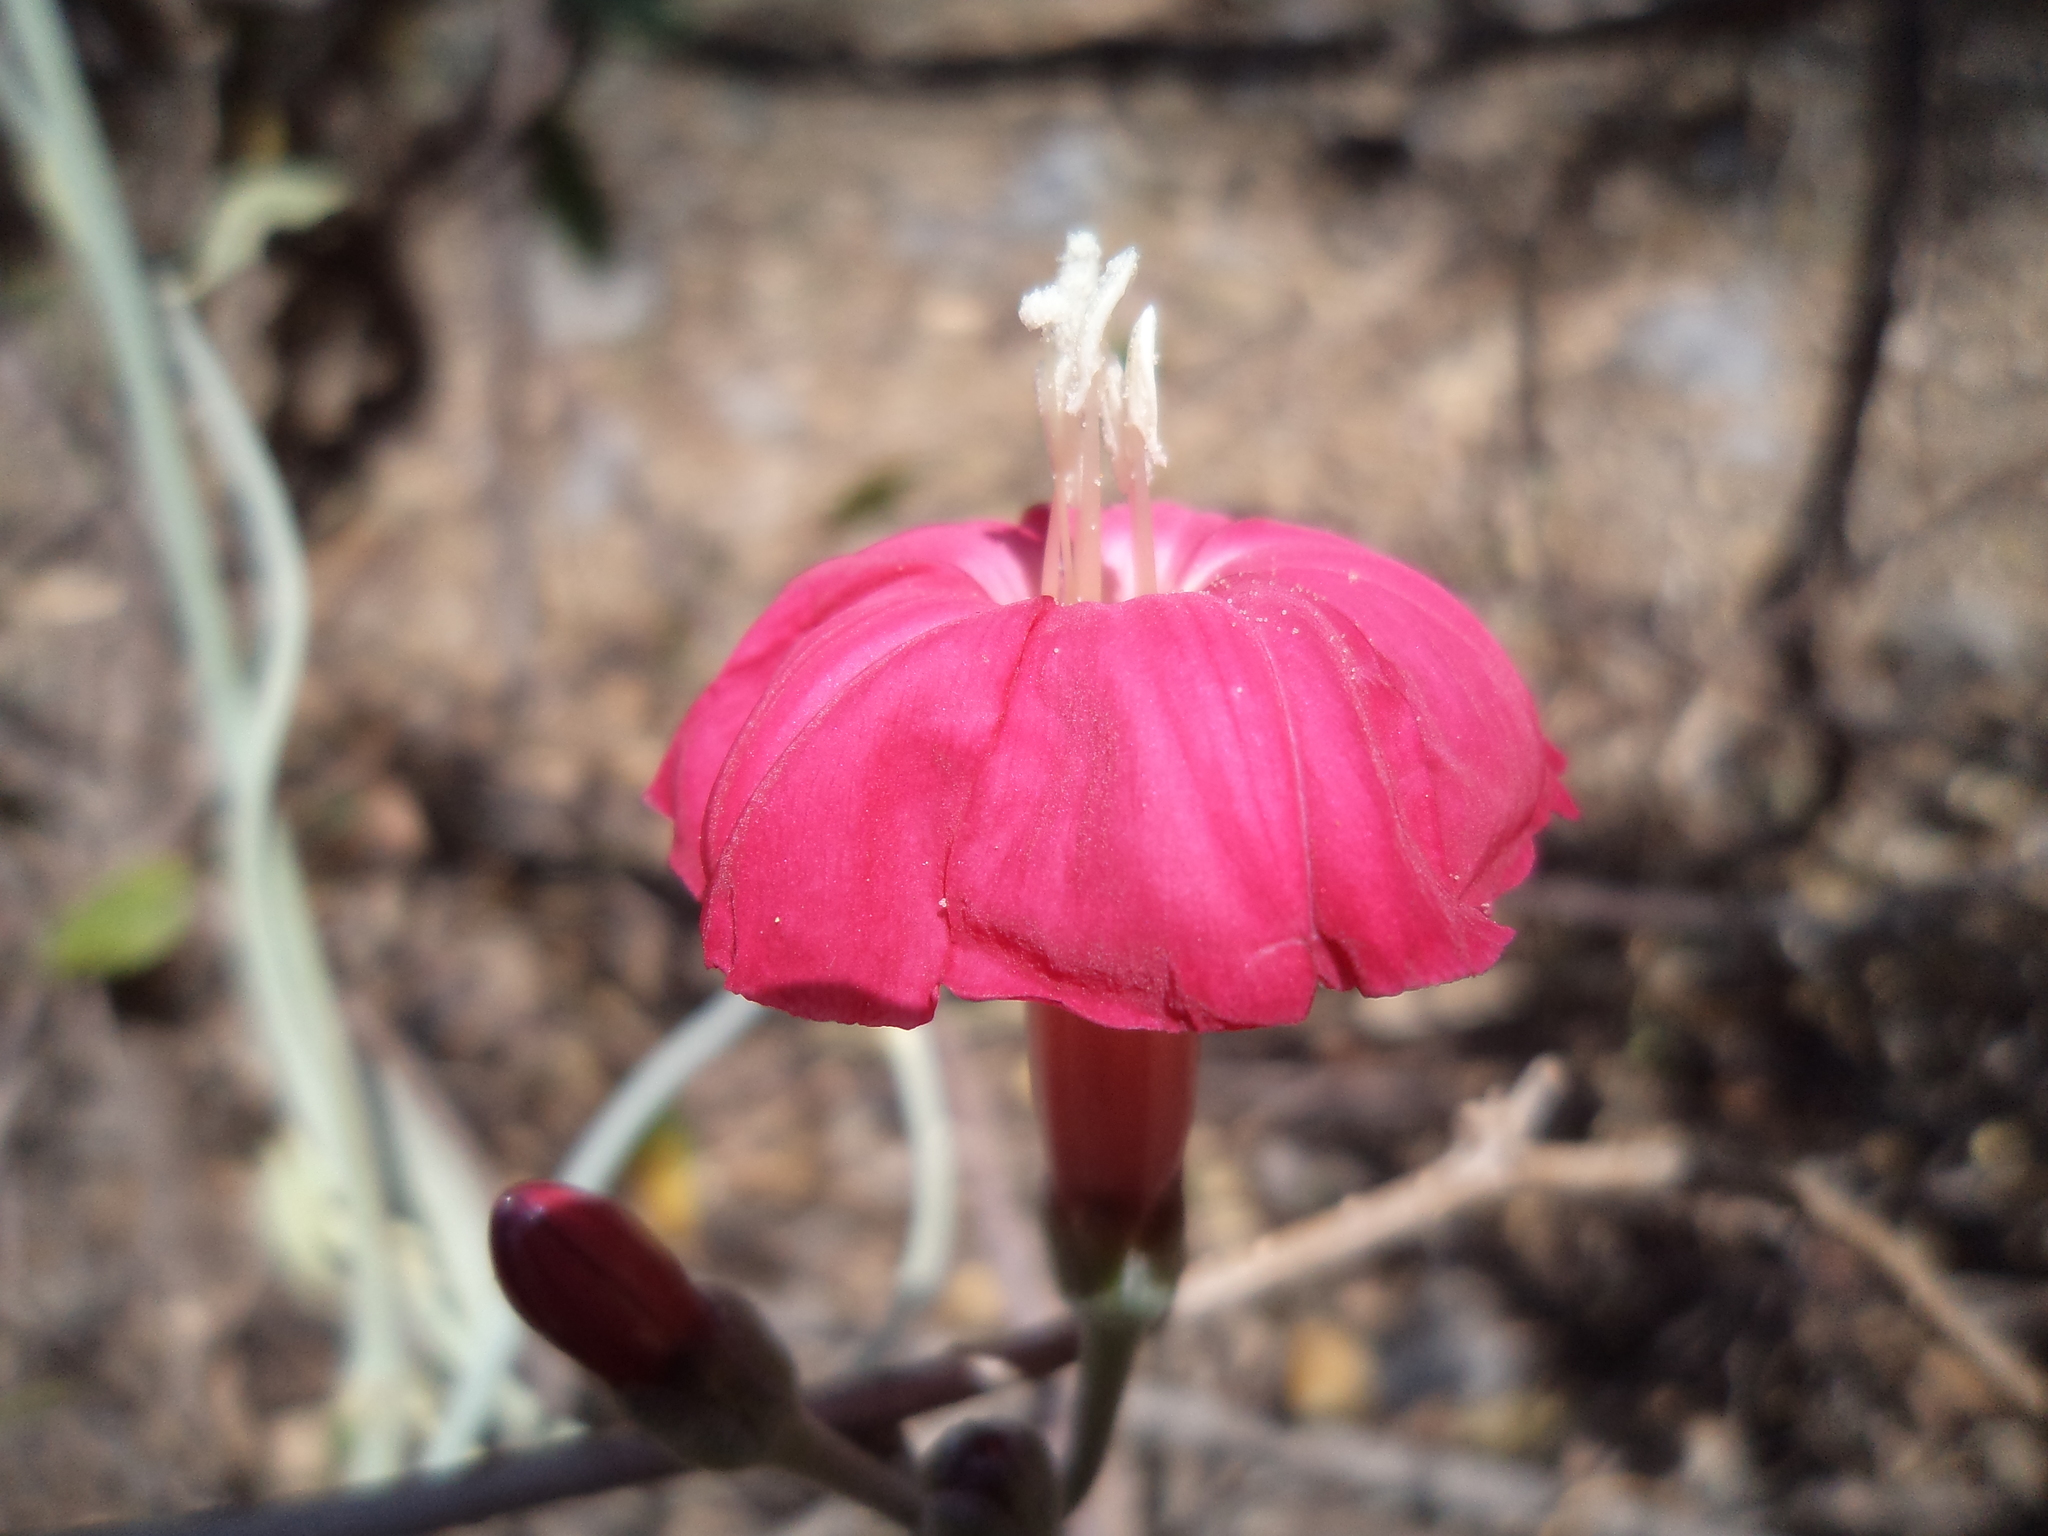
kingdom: Plantae
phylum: Tracheophyta
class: Magnoliopsida
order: Solanales
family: Convolvulaceae
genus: Ipomoea
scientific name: Ipomoea conzattii
